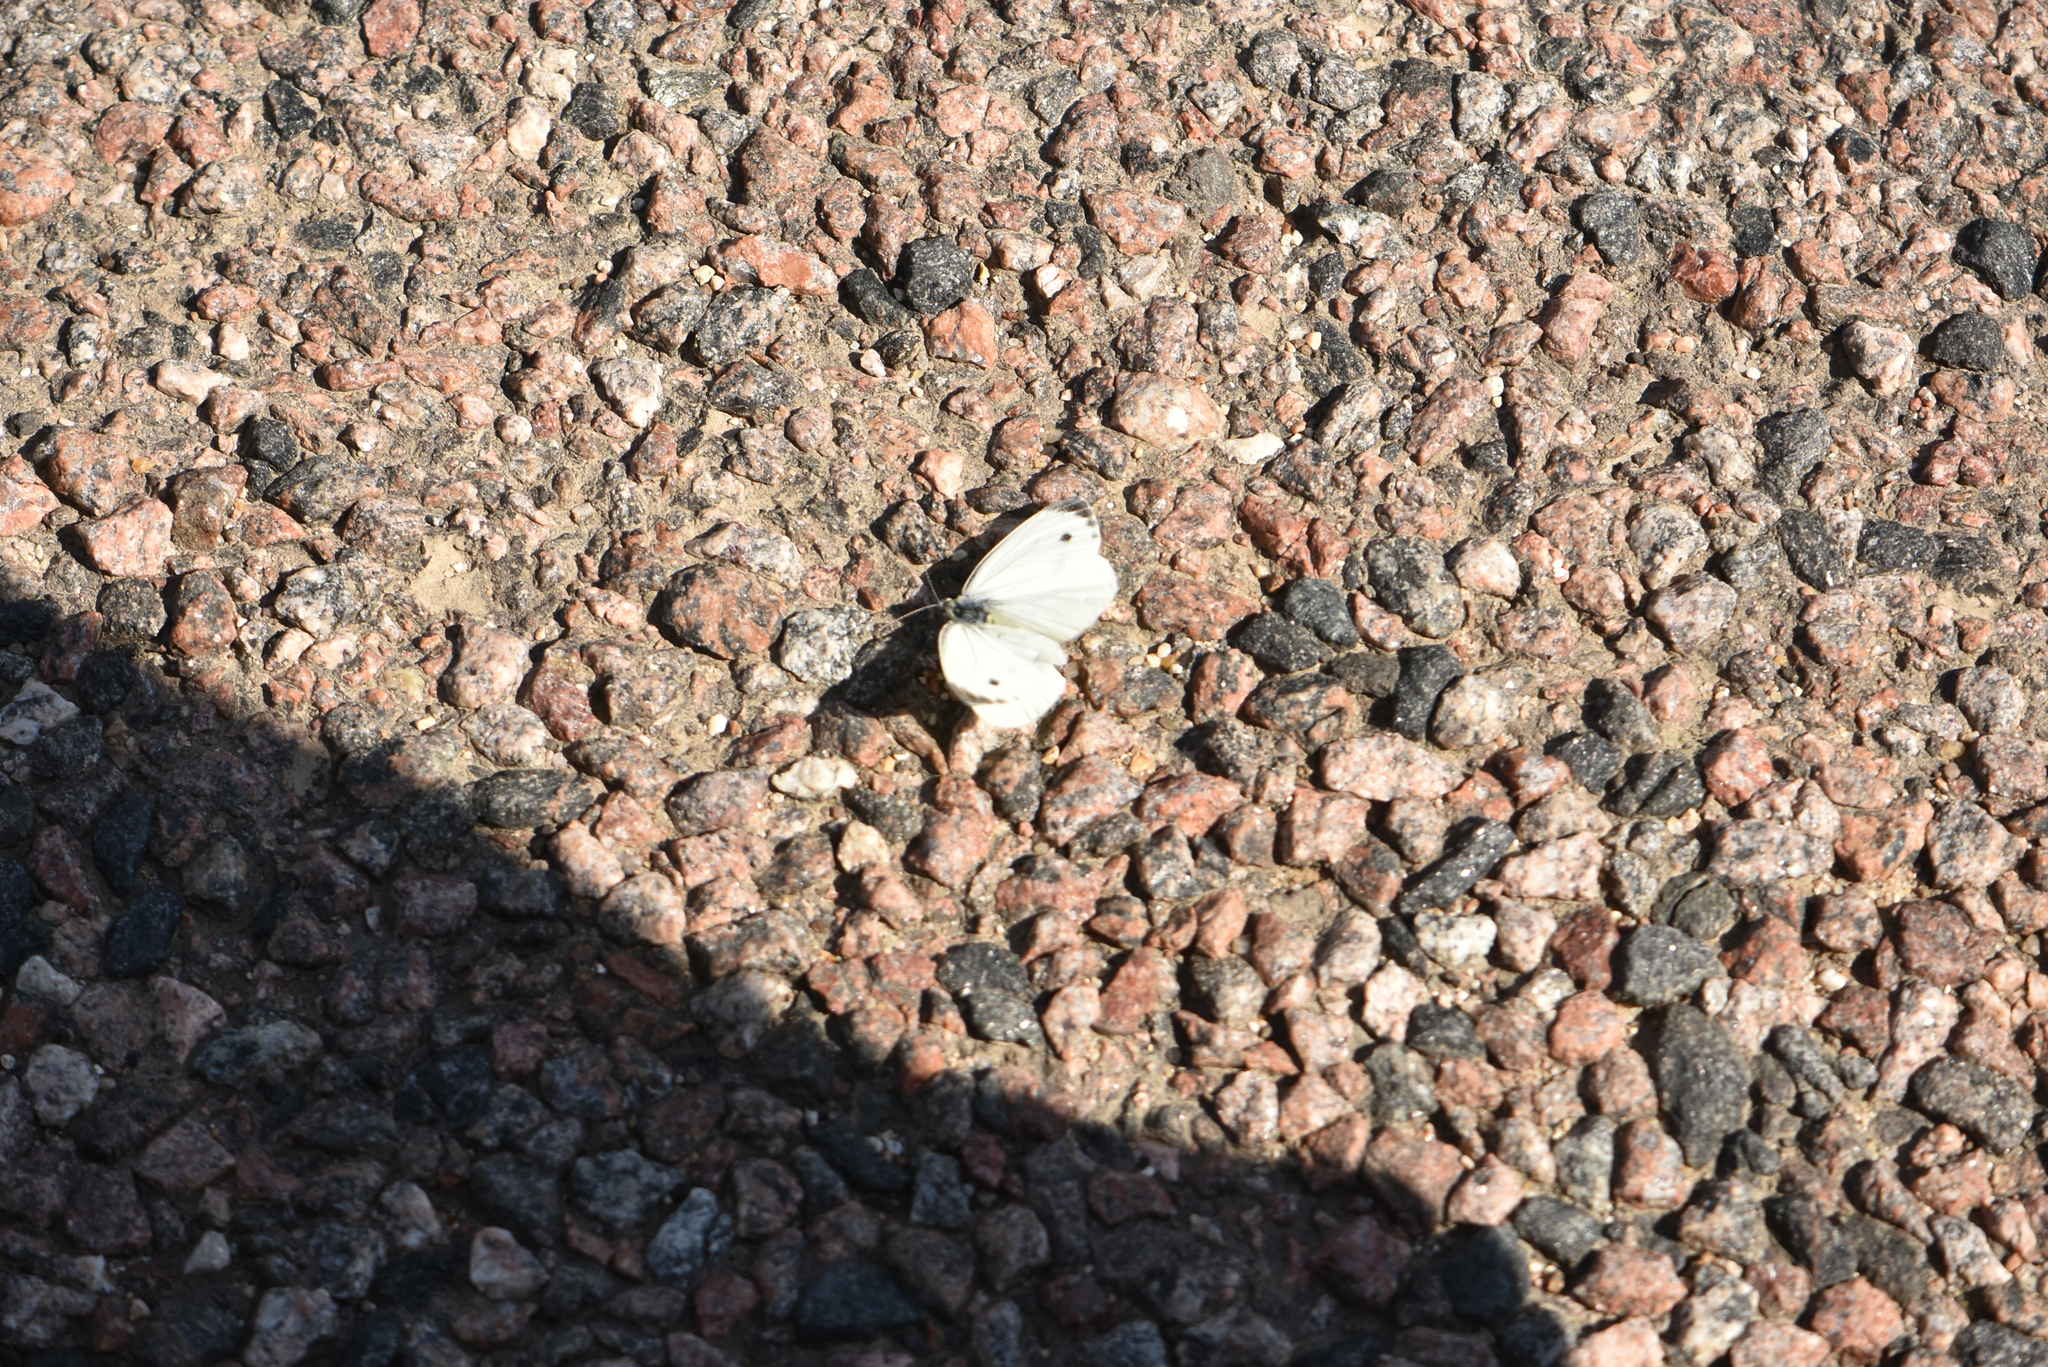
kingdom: Animalia
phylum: Arthropoda
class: Insecta
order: Lepidoptera
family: Pieridae
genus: Pieris
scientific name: Pieris napi
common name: Green-veined white
